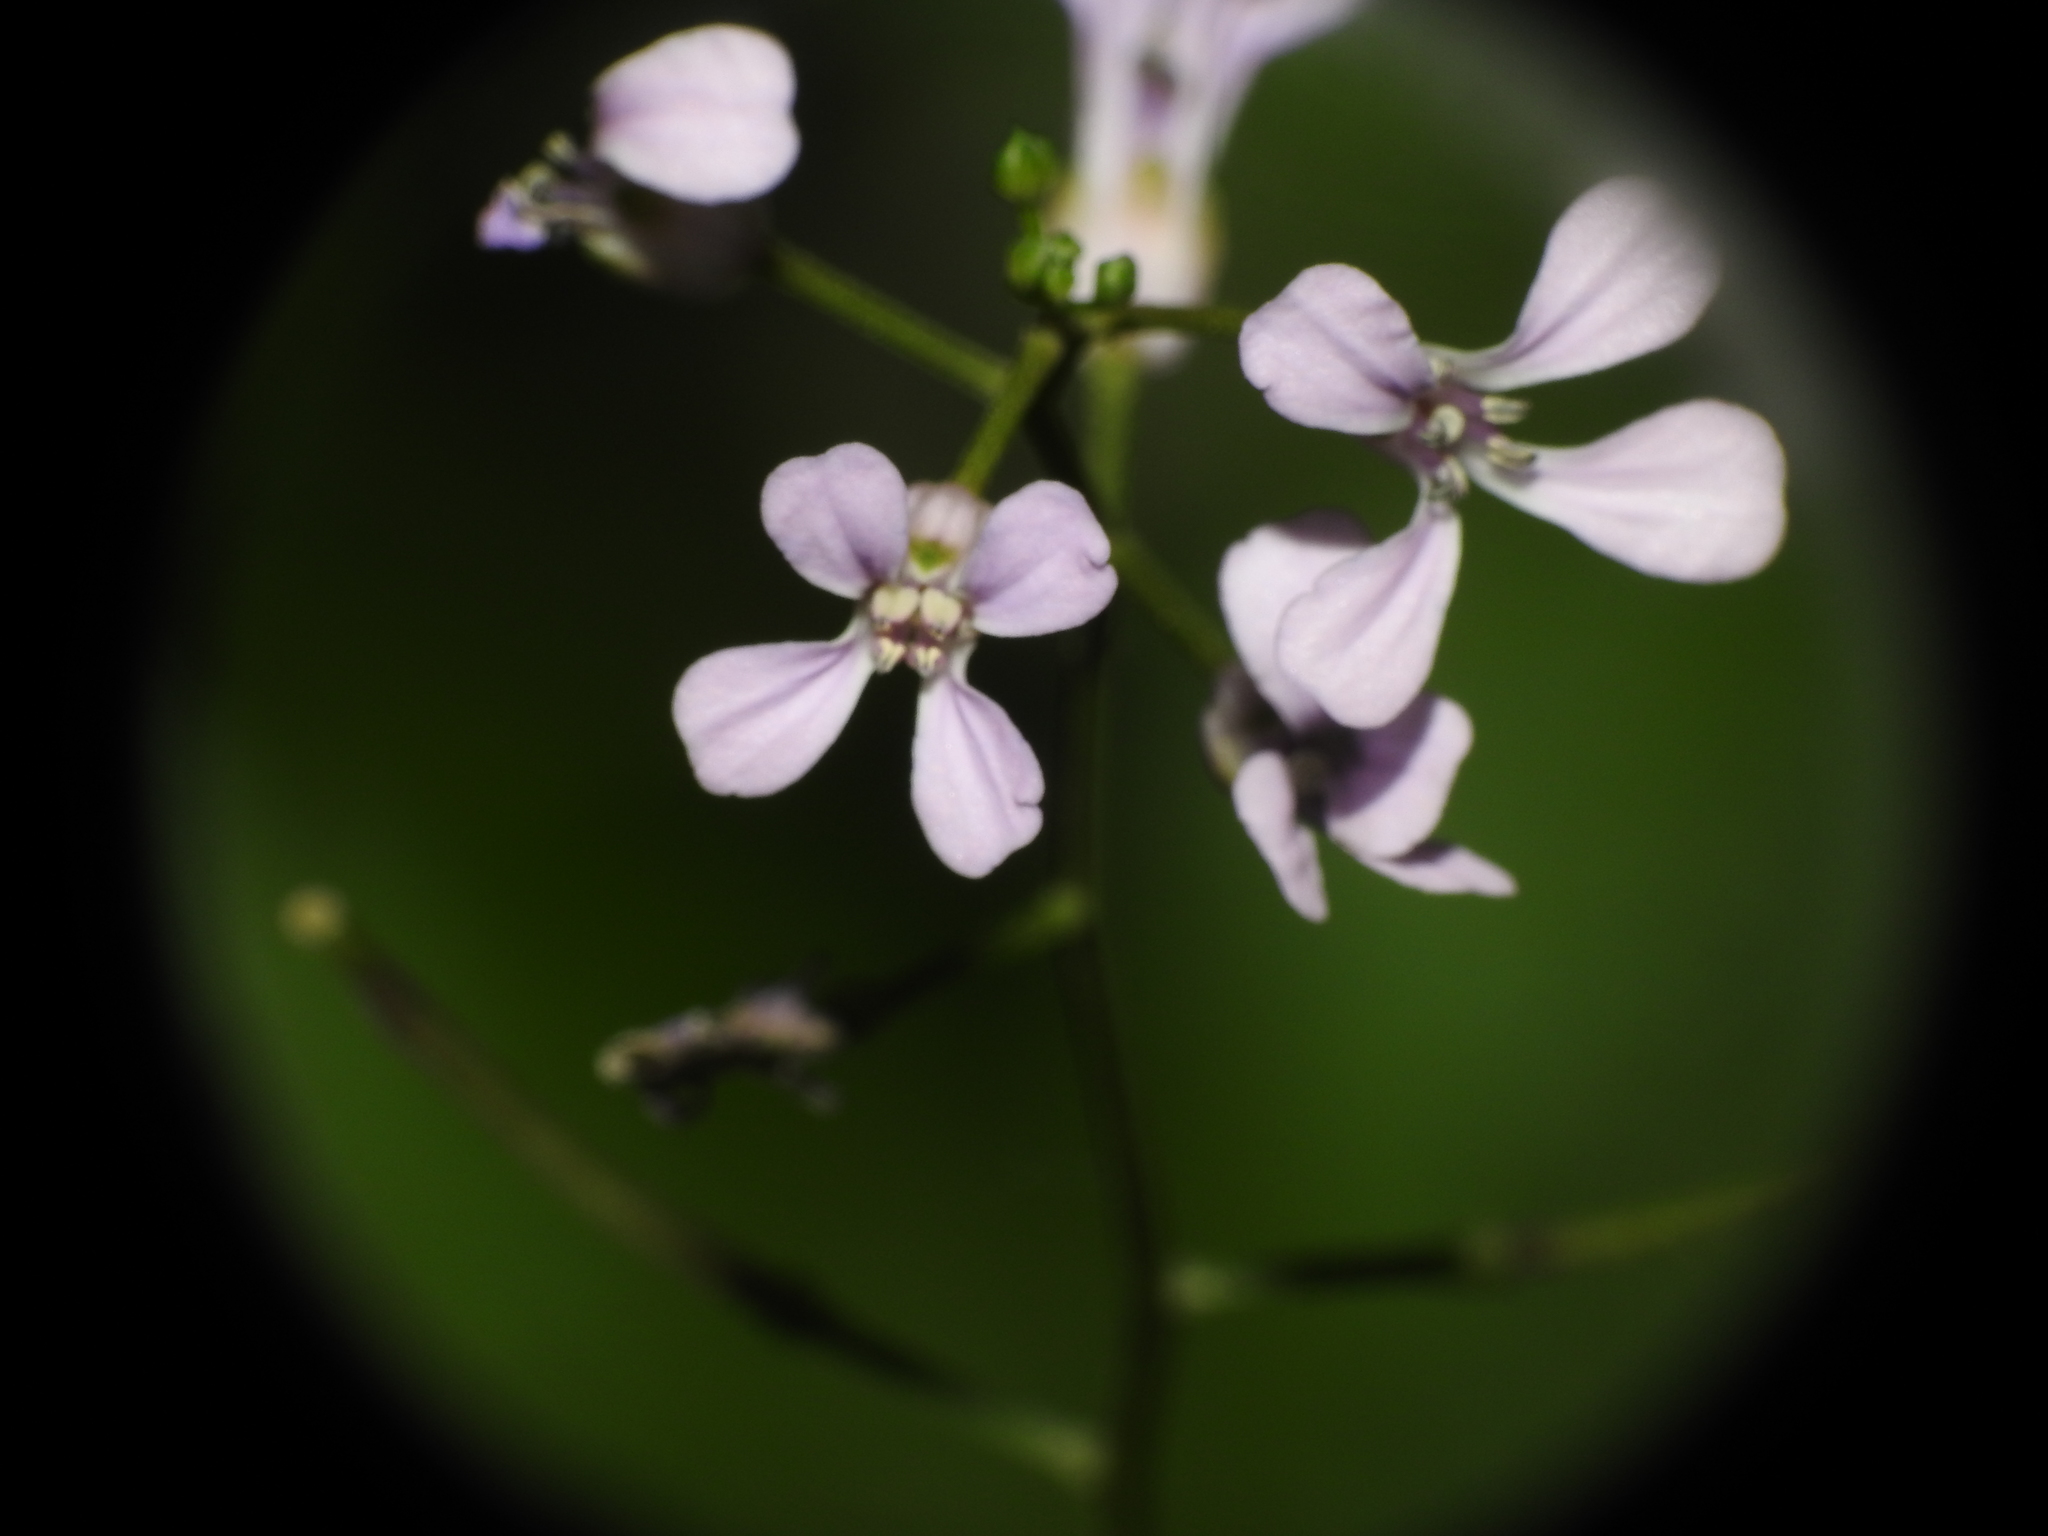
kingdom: Plantae
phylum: Tracheophyta
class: Magnoliopsida
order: Brassicales
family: Brassicaceae
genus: Hesperis
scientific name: Hesperis matronalis
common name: Dame's-violet
